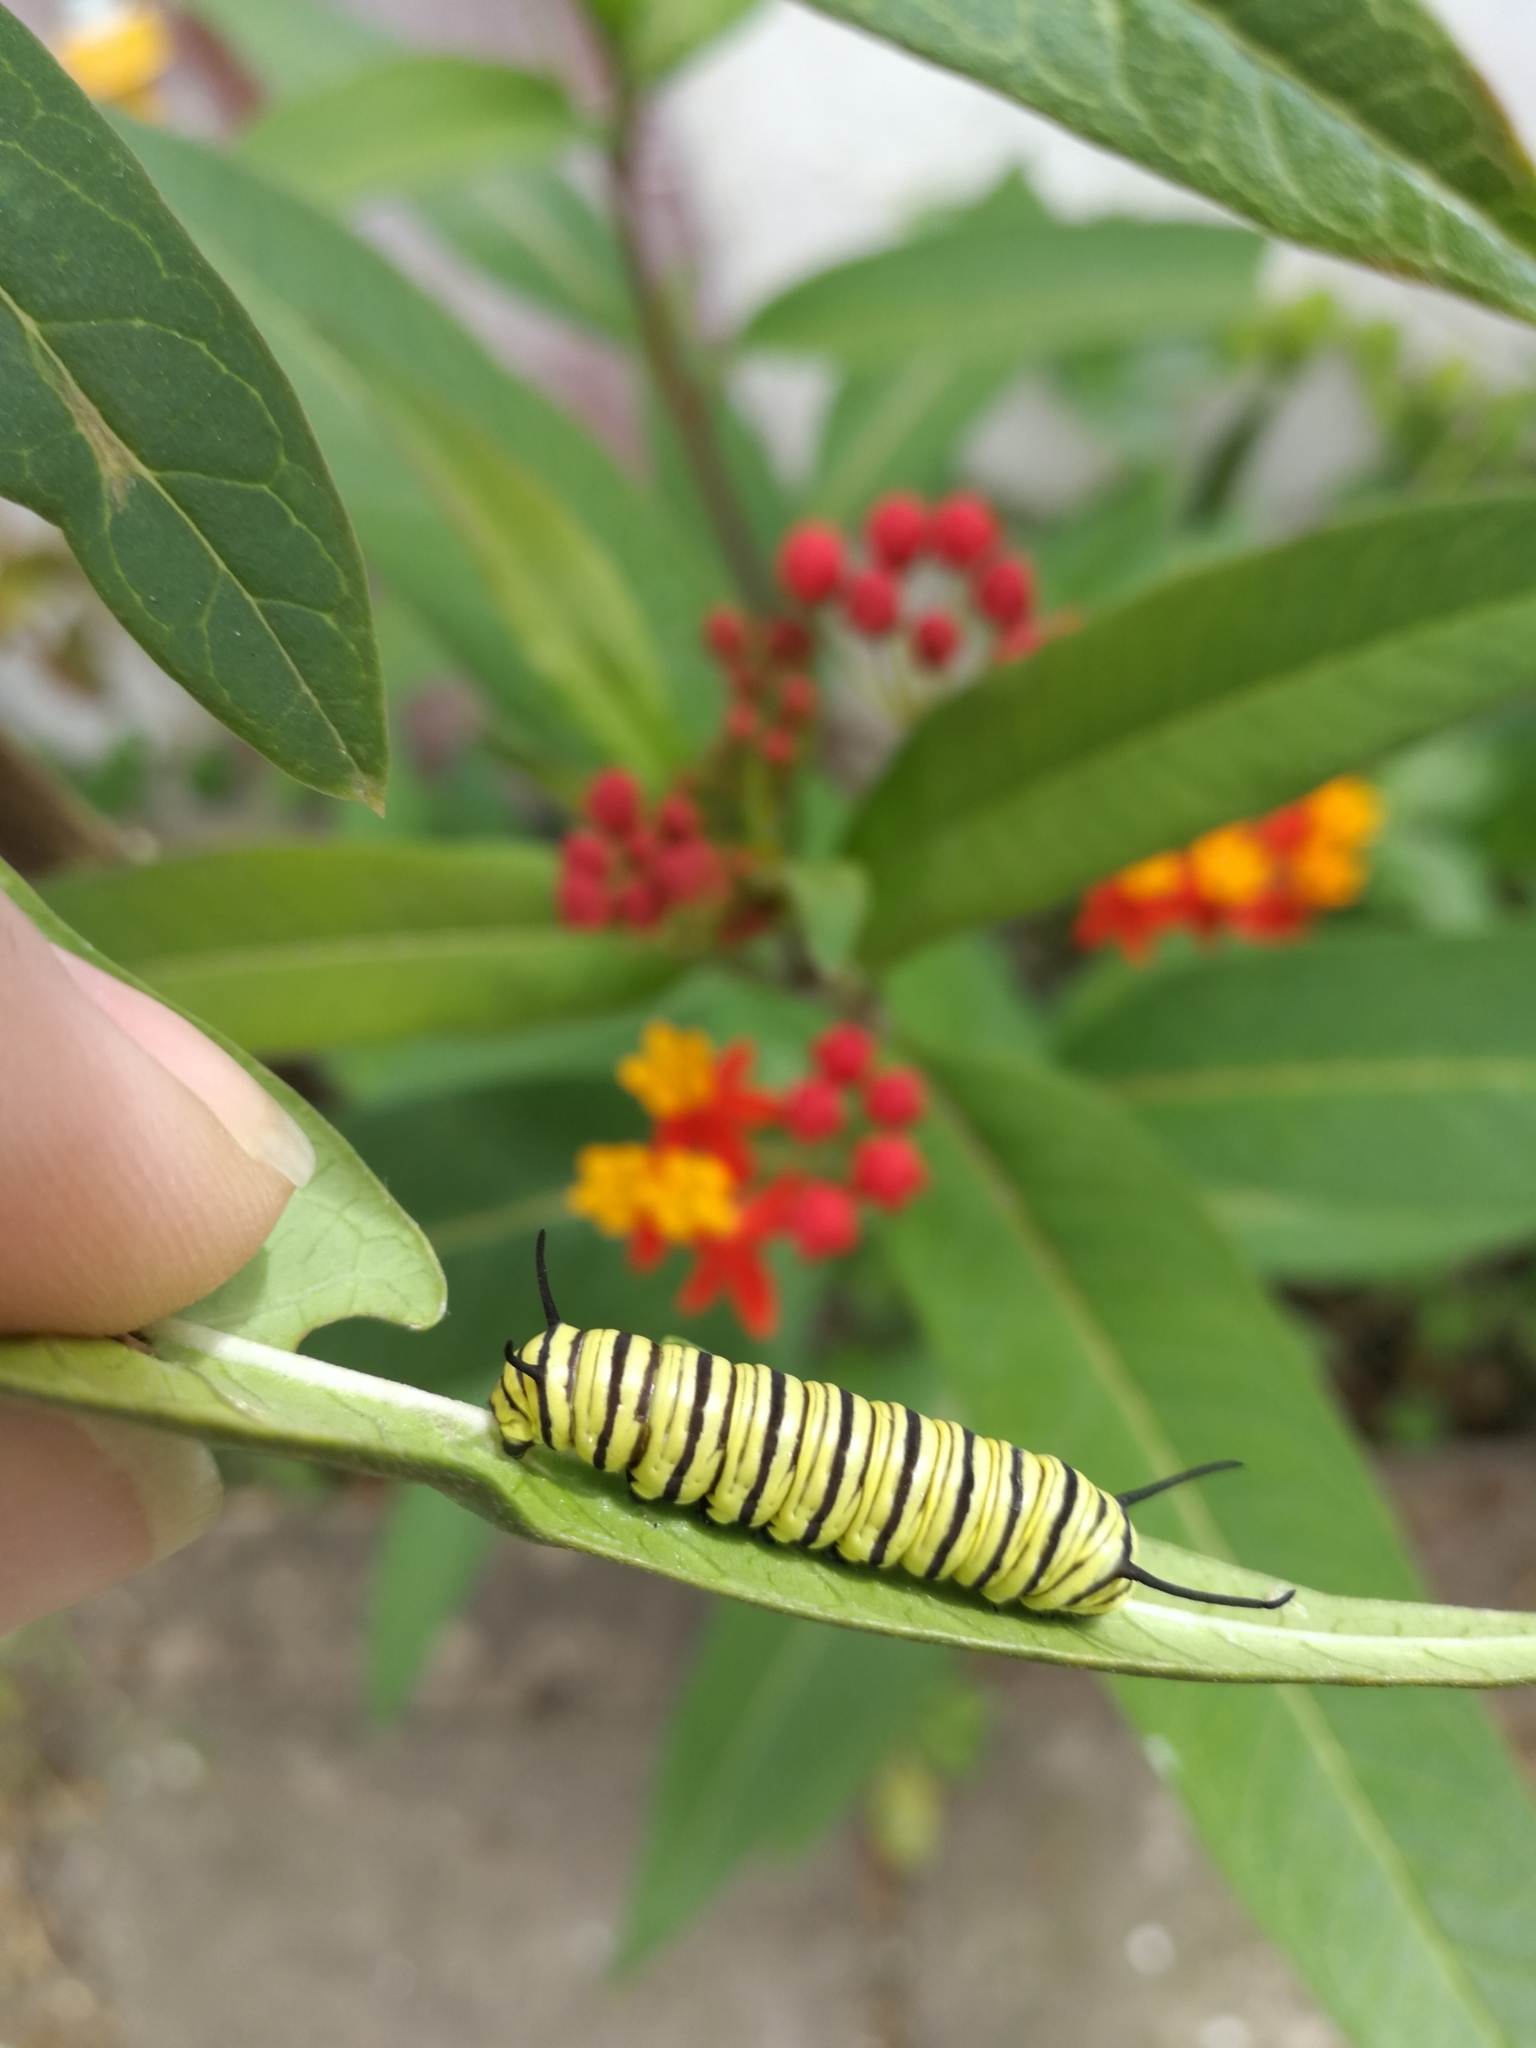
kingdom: Animalia
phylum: Arthropoda
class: Insecta
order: Lepidoptera
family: Nymphalidae
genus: Danaus
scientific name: Danaus erippus
